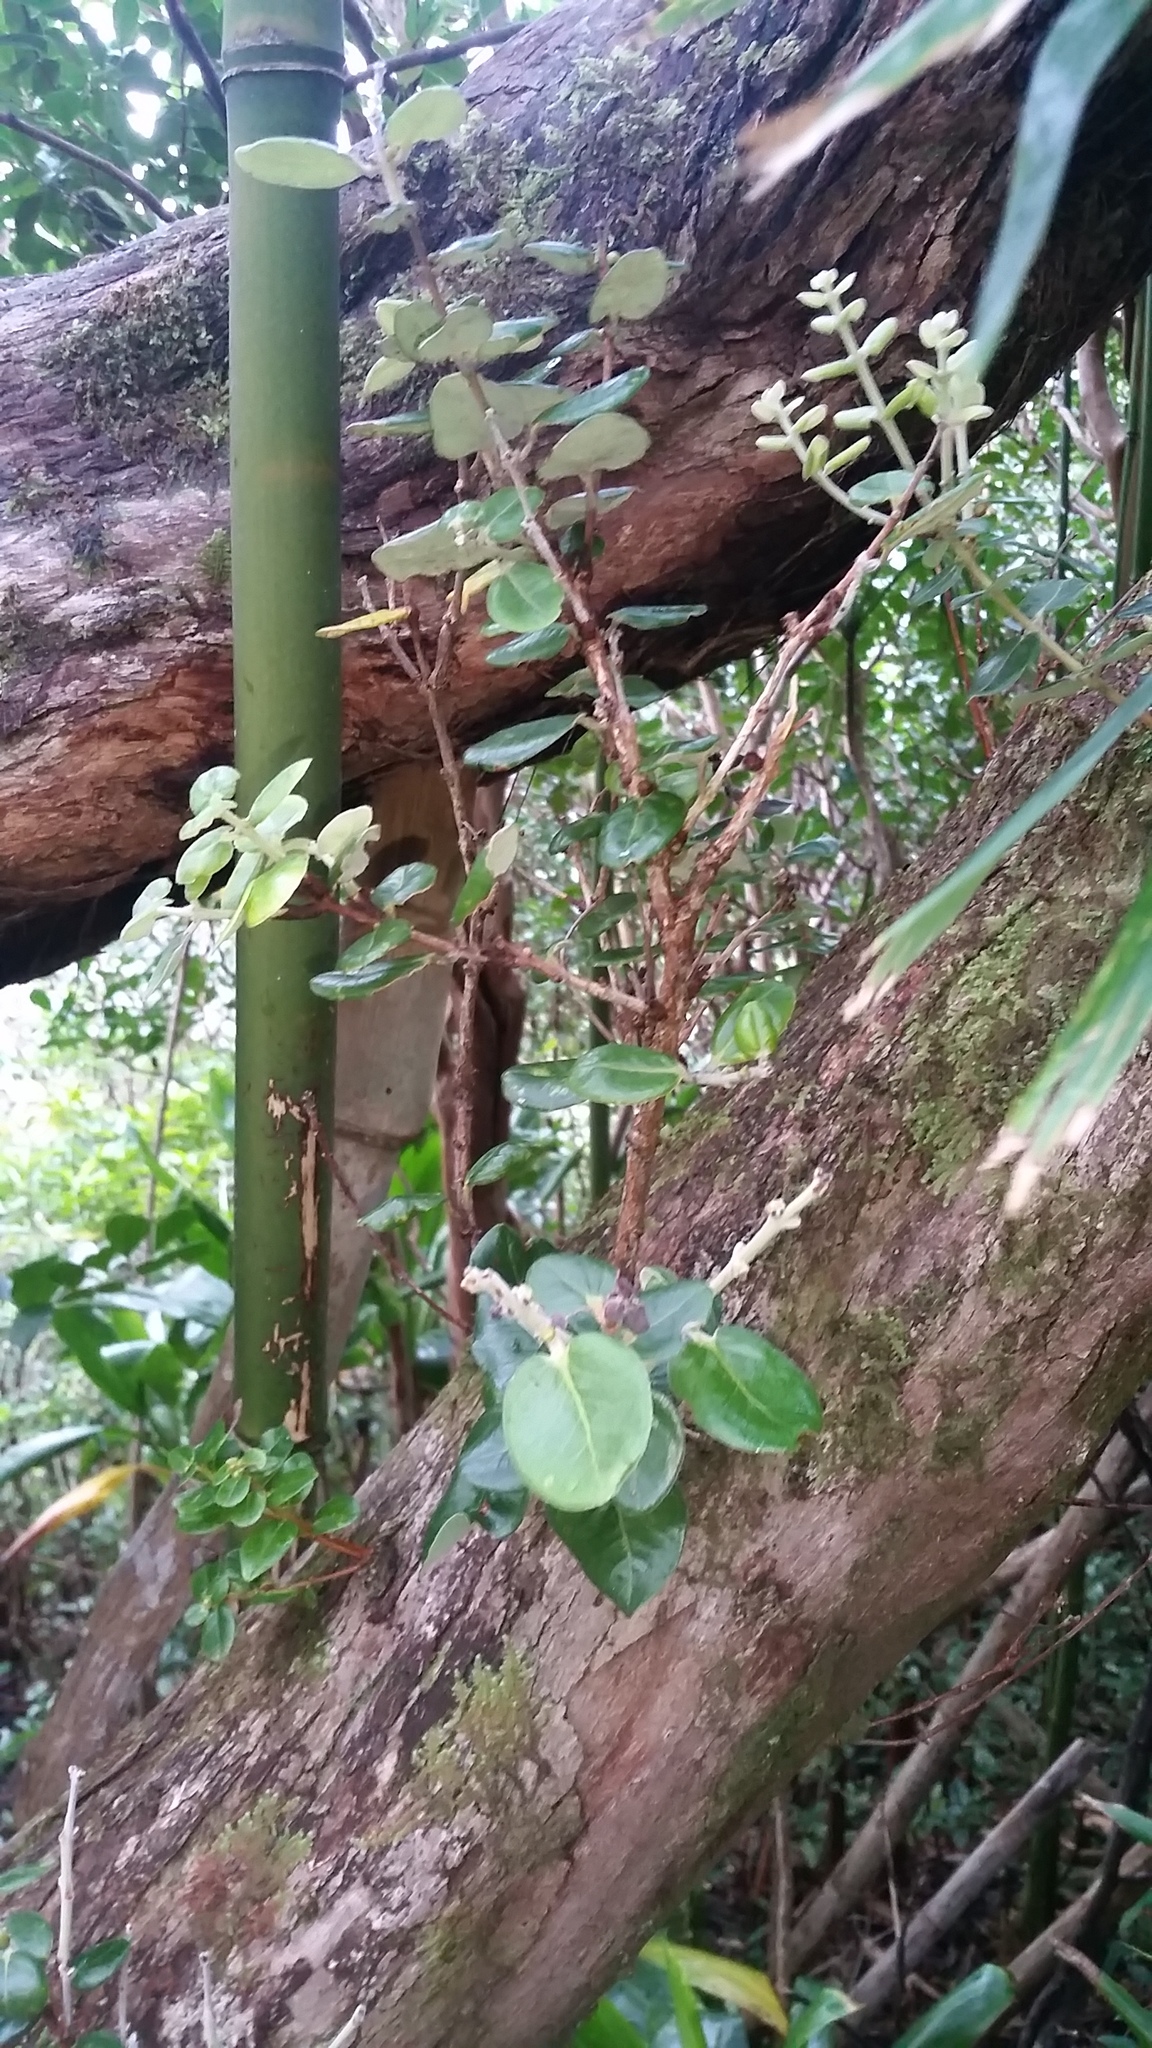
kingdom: Plantae
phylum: Tracheophyta
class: Magnoliopsida
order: Myrtales
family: Myrtaceae
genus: Metrosideros
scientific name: Metrosideros polymorpha
